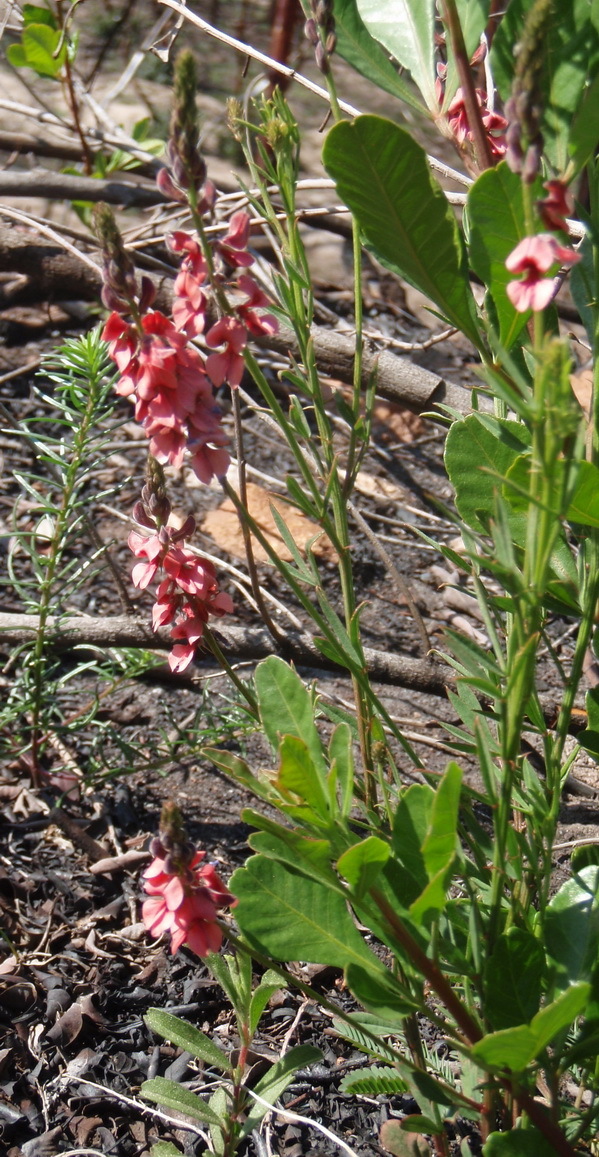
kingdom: Plantae
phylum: Tracheophyta
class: Magnoliopsida
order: Fabales
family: Fabaceae
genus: Indigofera
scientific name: Indigofera heterophylla
